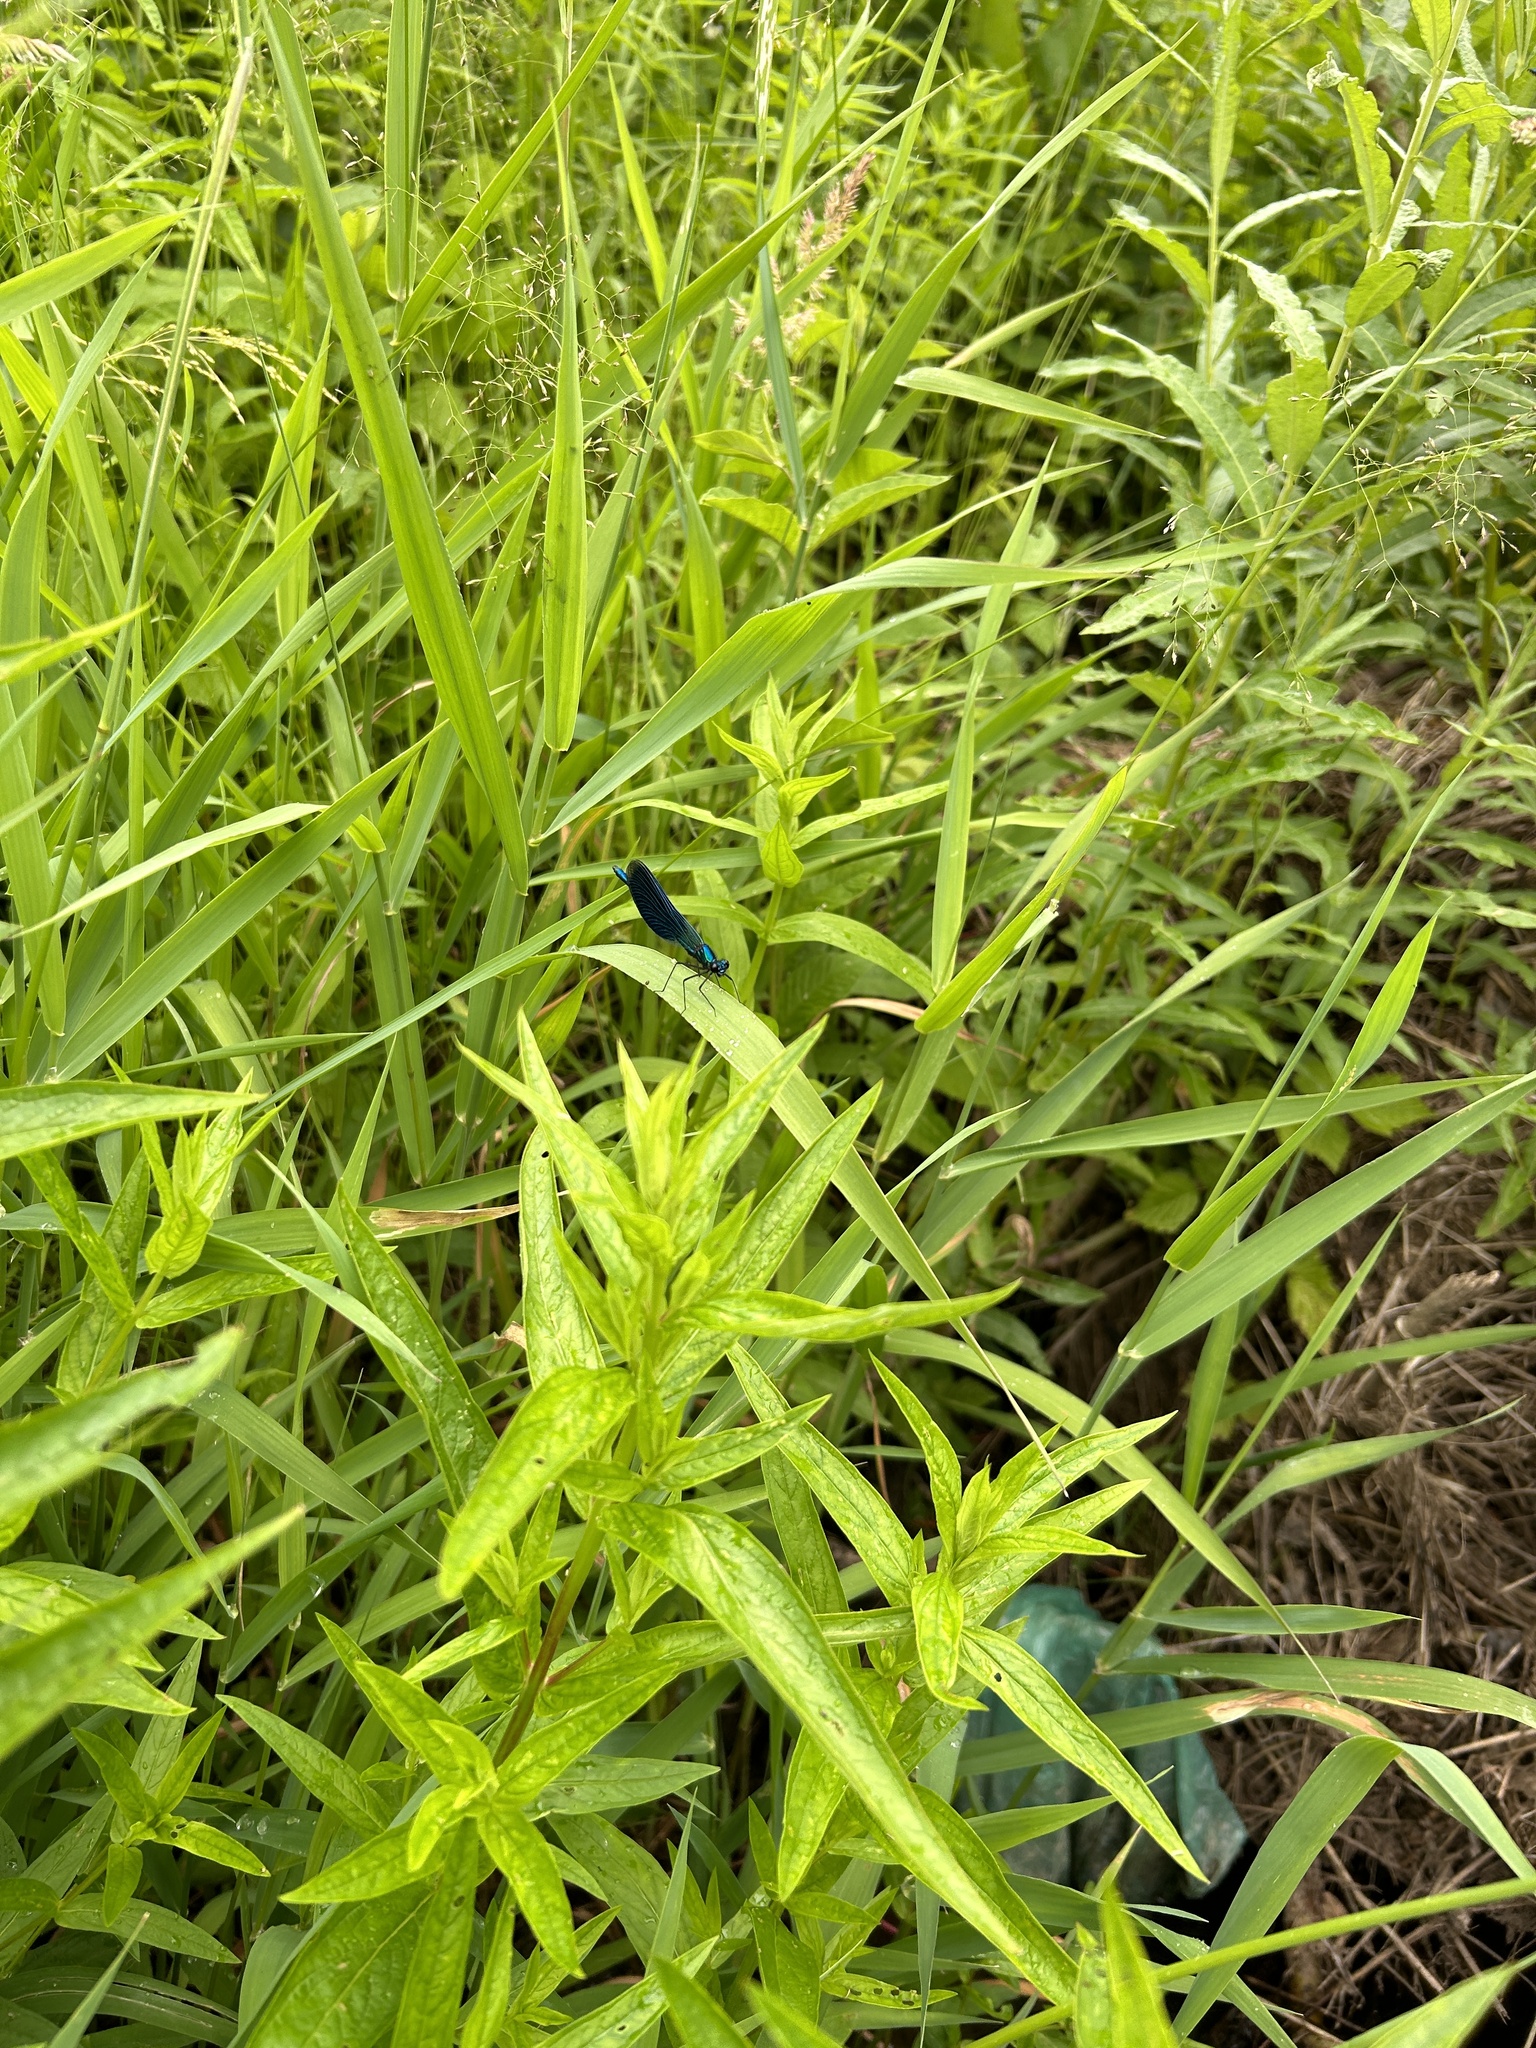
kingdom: Animalia
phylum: Arthropoda
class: Insecta
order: Odonata
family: Calopterygidae
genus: Calopteryx
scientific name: Calopteryx splendens
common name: Banded demoiselle
